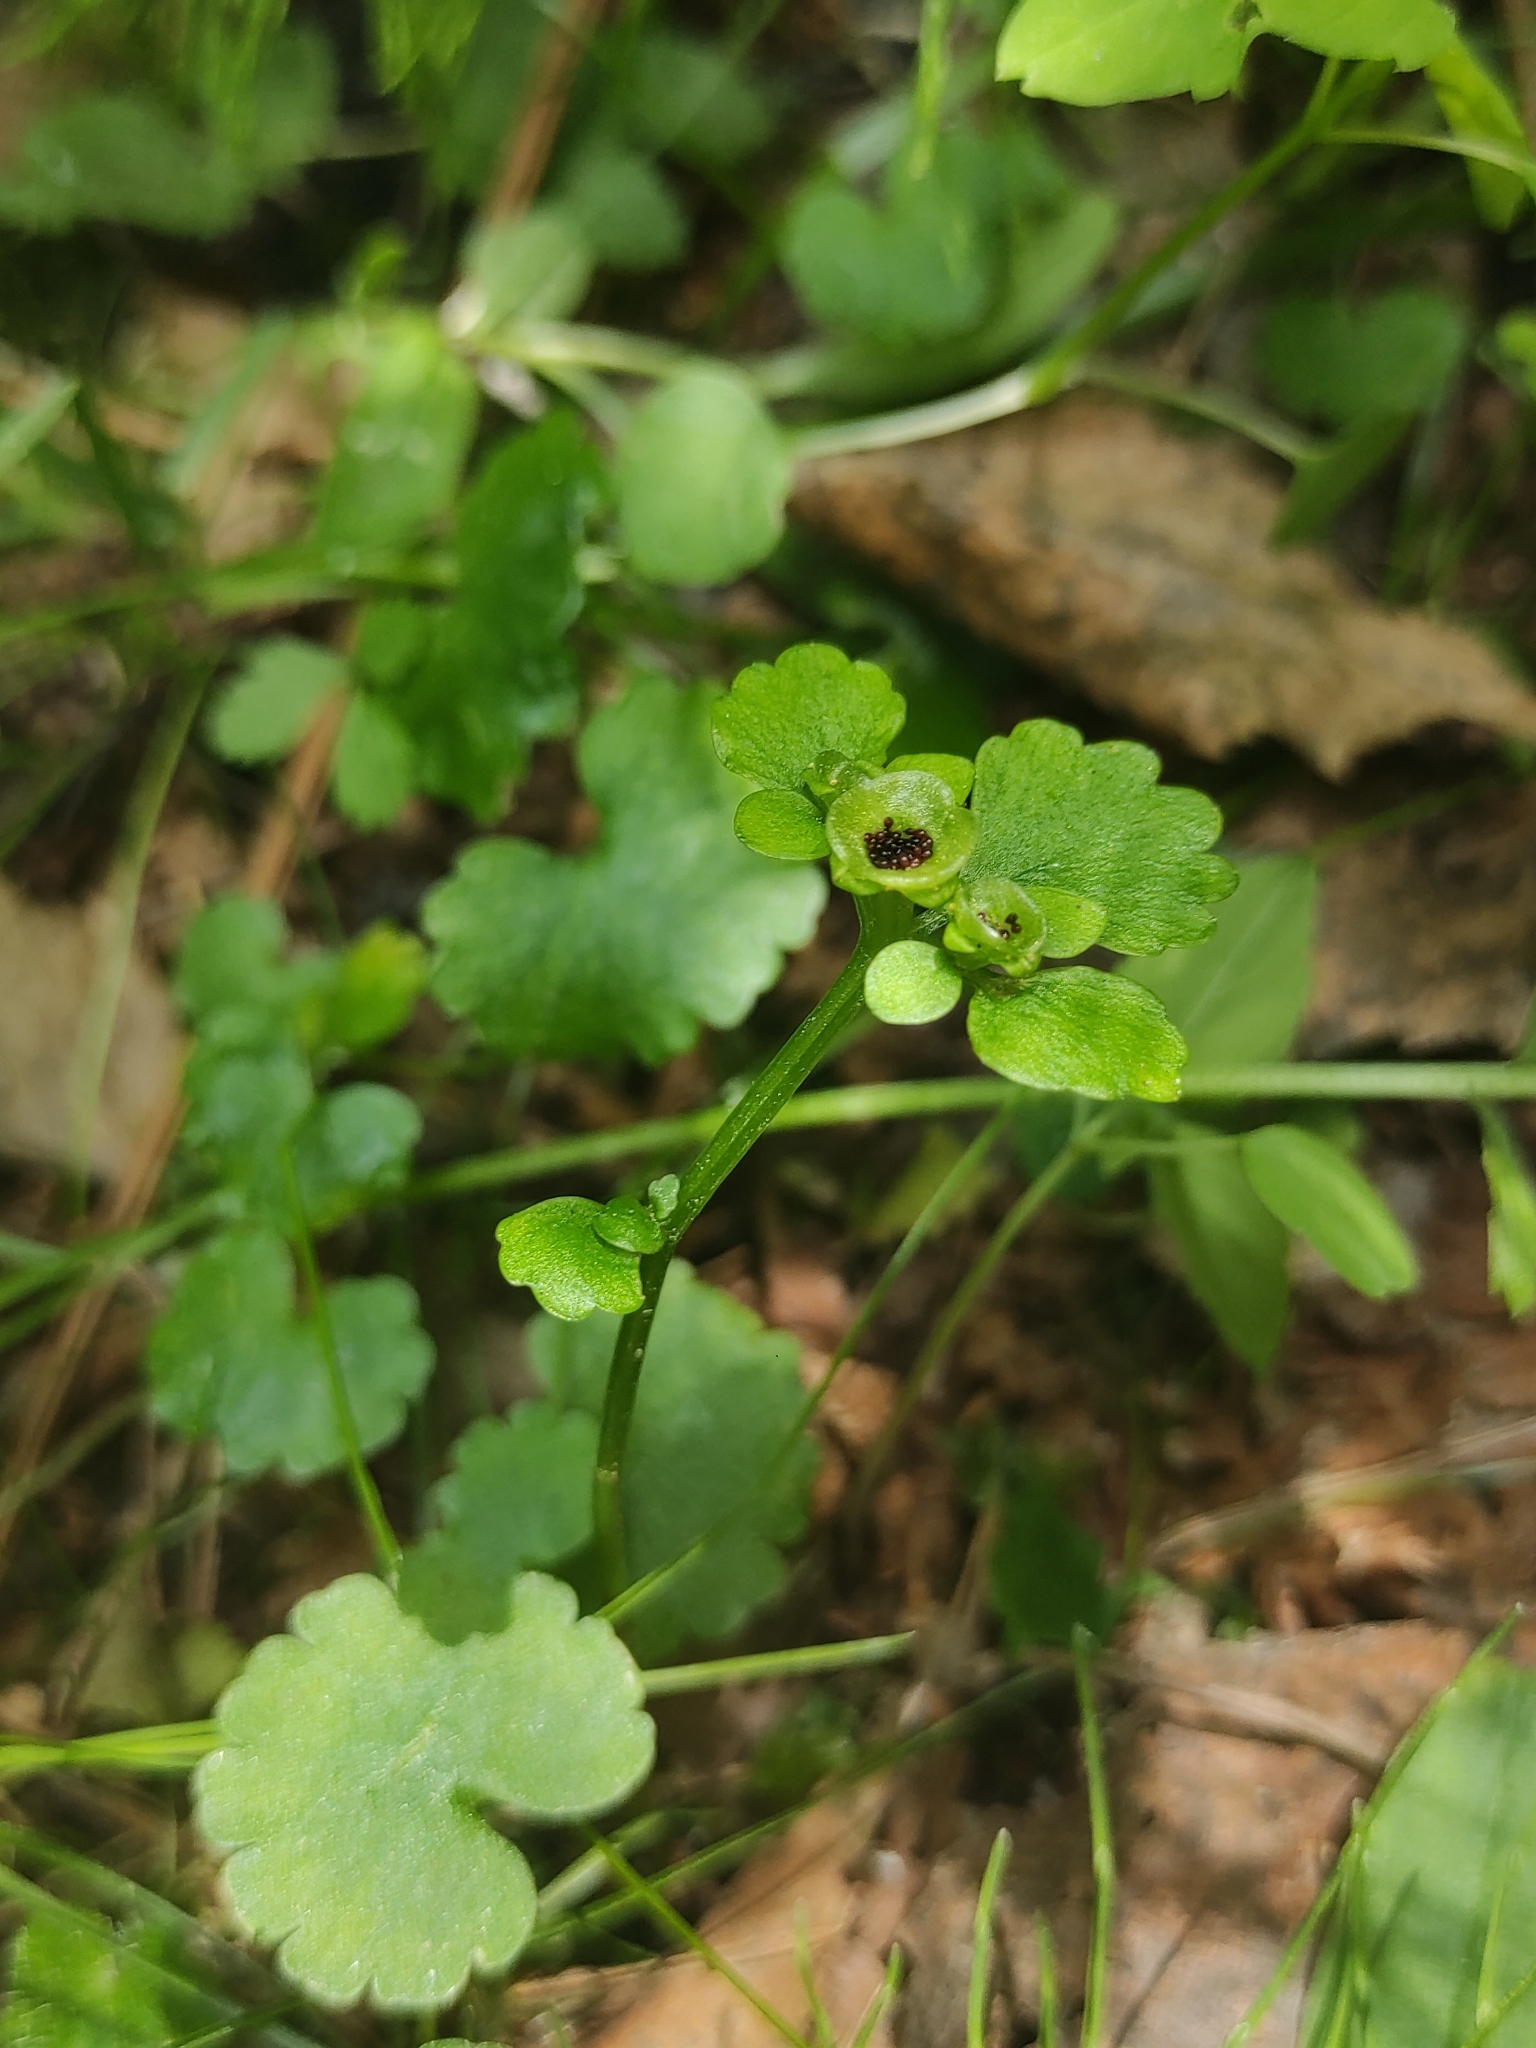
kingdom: Plantae
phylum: Tracheophyta
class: Magnoliopsida
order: Saxifragales
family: Saxifragaceae
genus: Chrysosplenium
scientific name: Chrysosplenium alternifolium
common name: Alternate-leaved golden-saxifrage
